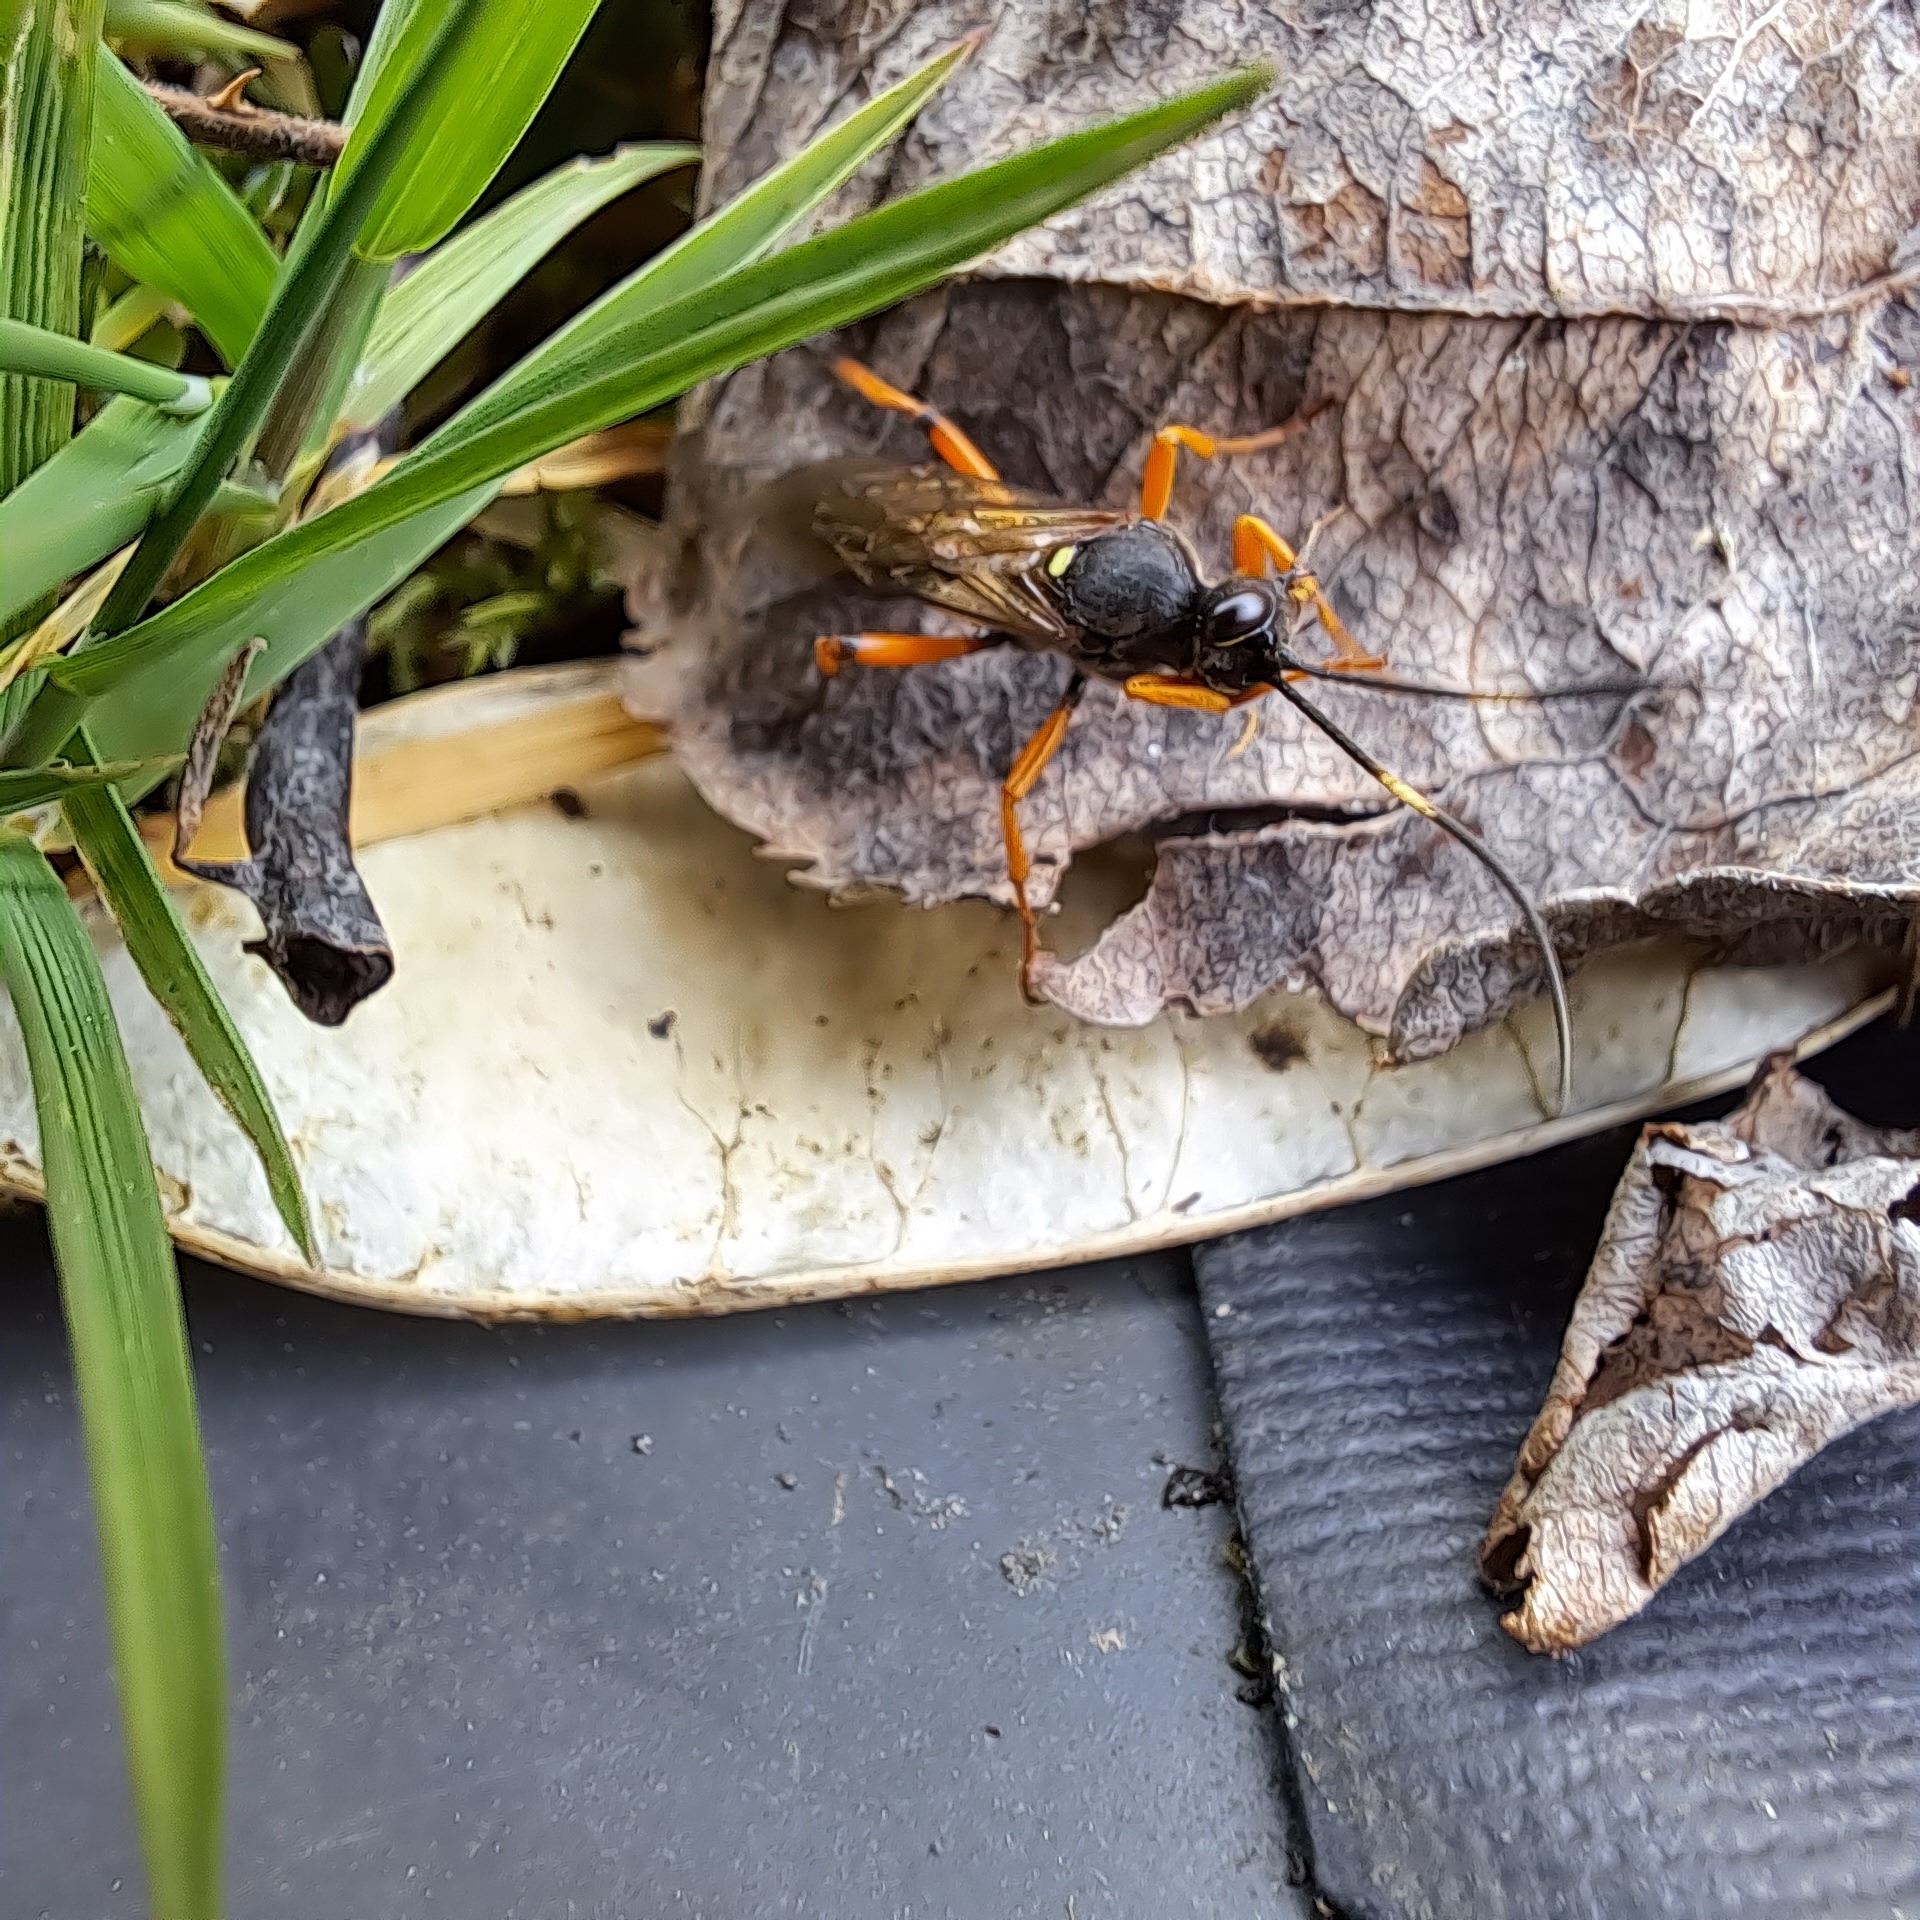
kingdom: Animalia
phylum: Arthropoda
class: Insecta
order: Hymenoptera
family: Ichneumonidae
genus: Diphyus
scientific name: Diphyus quadripunctorius
